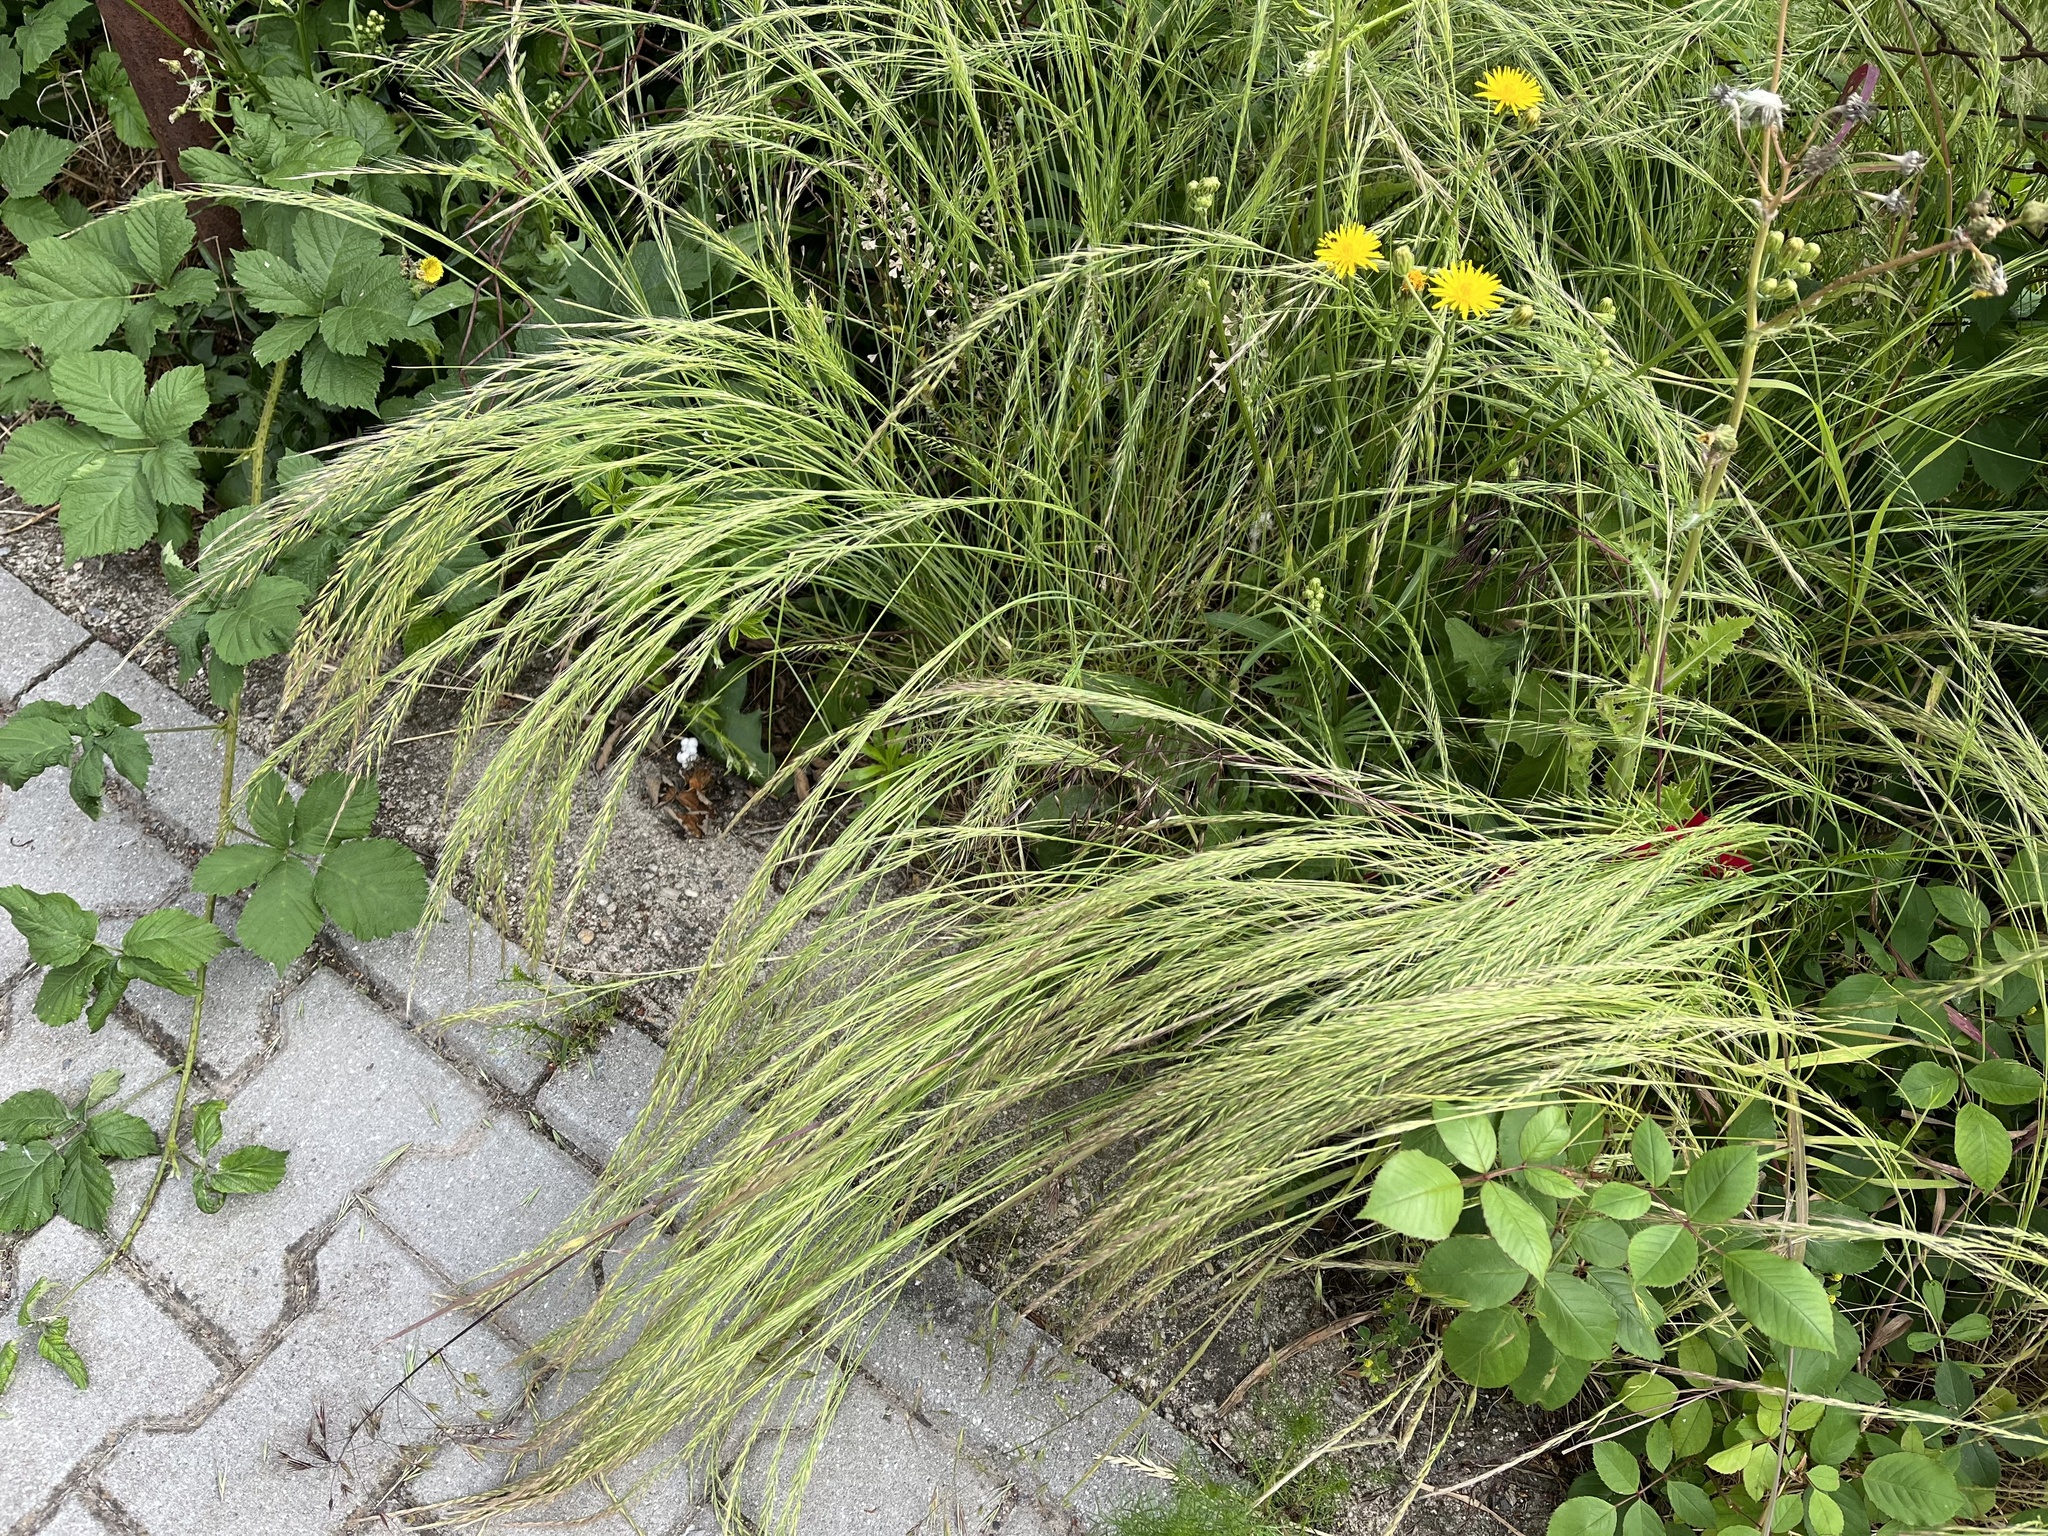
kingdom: Plantae
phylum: Tracheophyta
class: Liliopsida
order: Poales
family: Poaceae
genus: Festuca
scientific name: Festuca myuros
